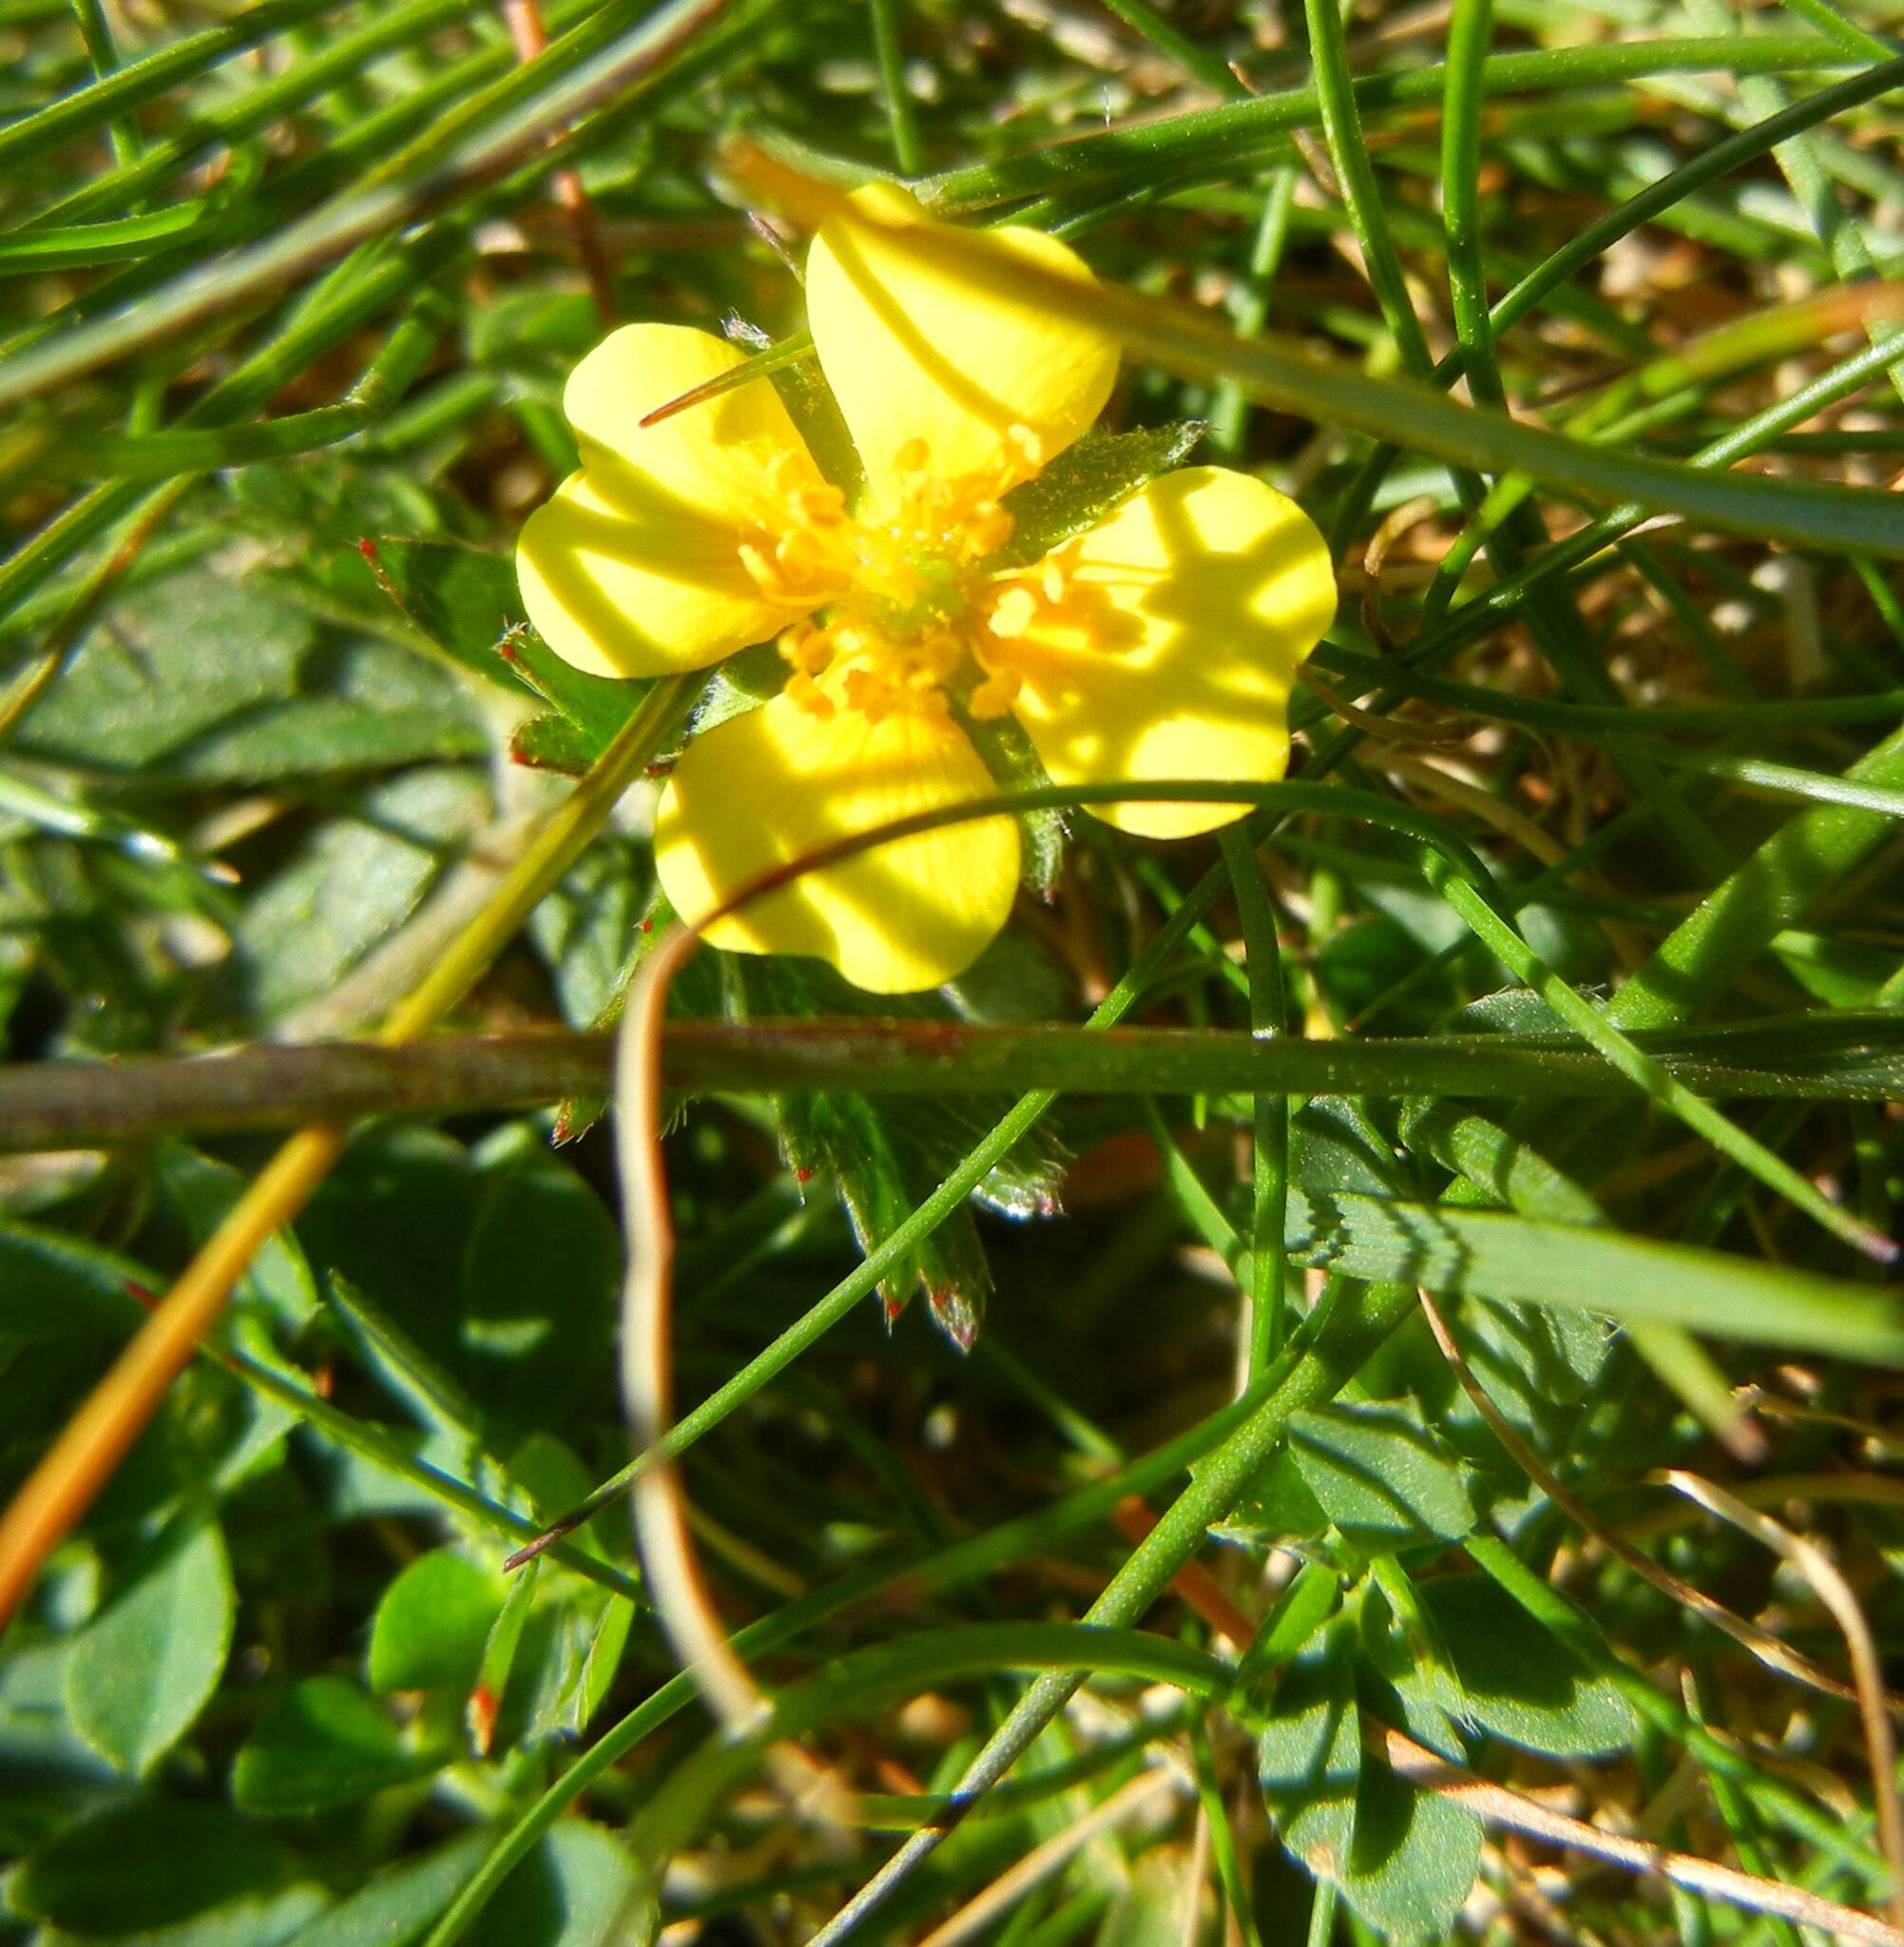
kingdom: Plantae
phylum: Tracheophyta
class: Magnoliopsida
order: Rosales
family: Rosaceae
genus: Potentilla
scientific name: Potentilla erecta
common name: Tormentil
